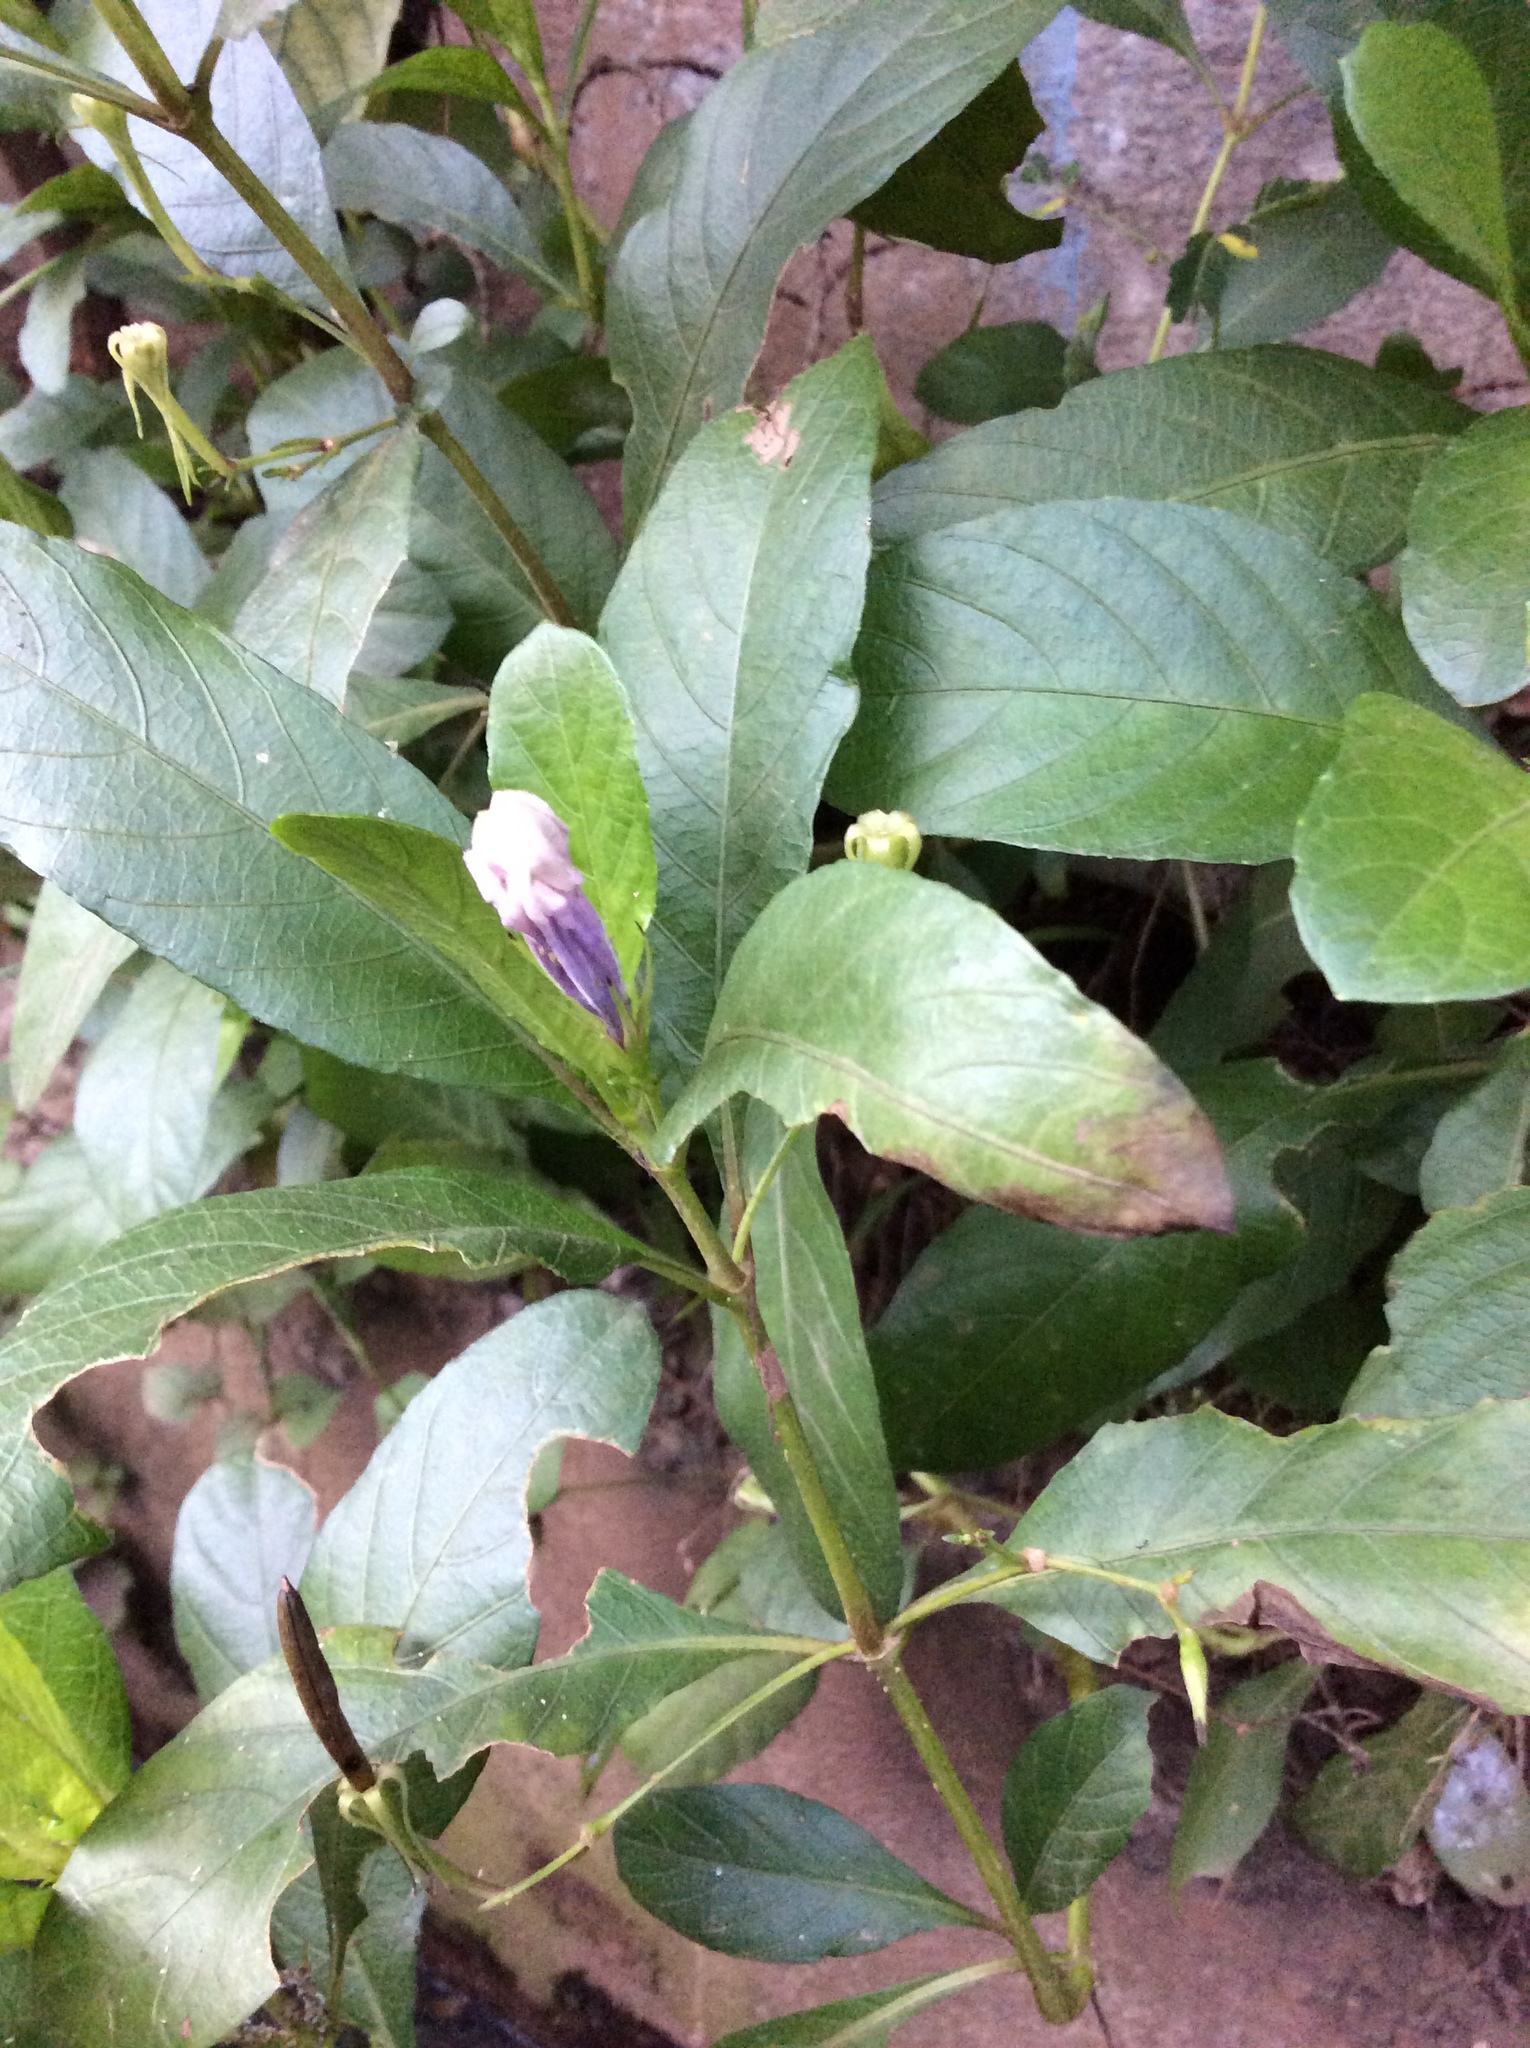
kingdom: Plantae
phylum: Tracheophyta
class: Magnoliopsida
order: Lamiales
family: Acanthaceae
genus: Ruellia
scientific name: Ruellia tuberosa
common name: Devil's bit
